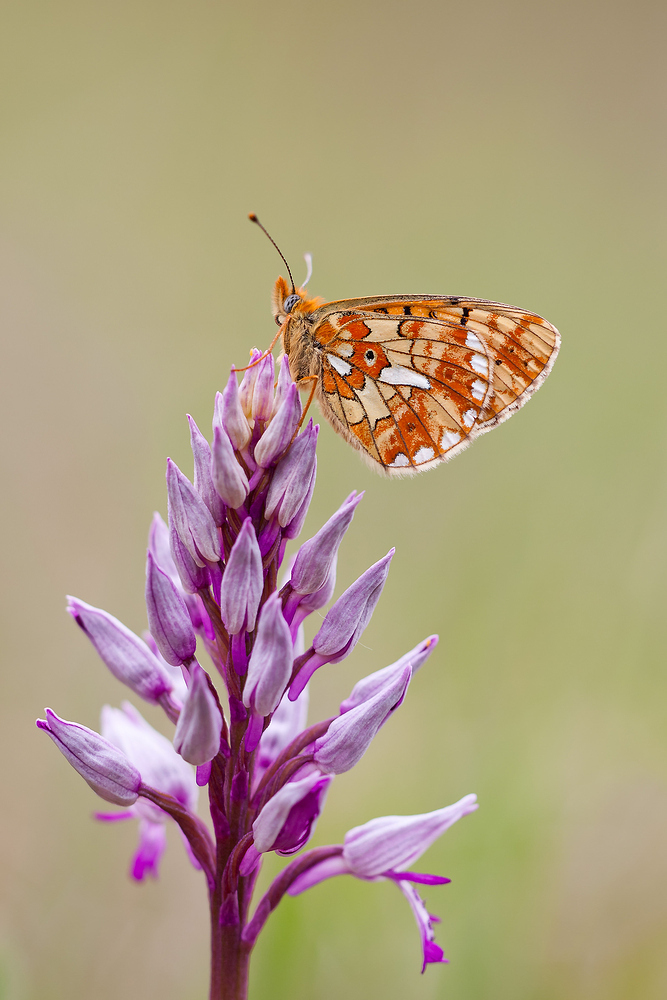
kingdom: Animalia
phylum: Arthropoda
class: Insecta
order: Lepidoptera
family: Nymphalidae
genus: Clossiana
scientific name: Clossiana euphrosyne
